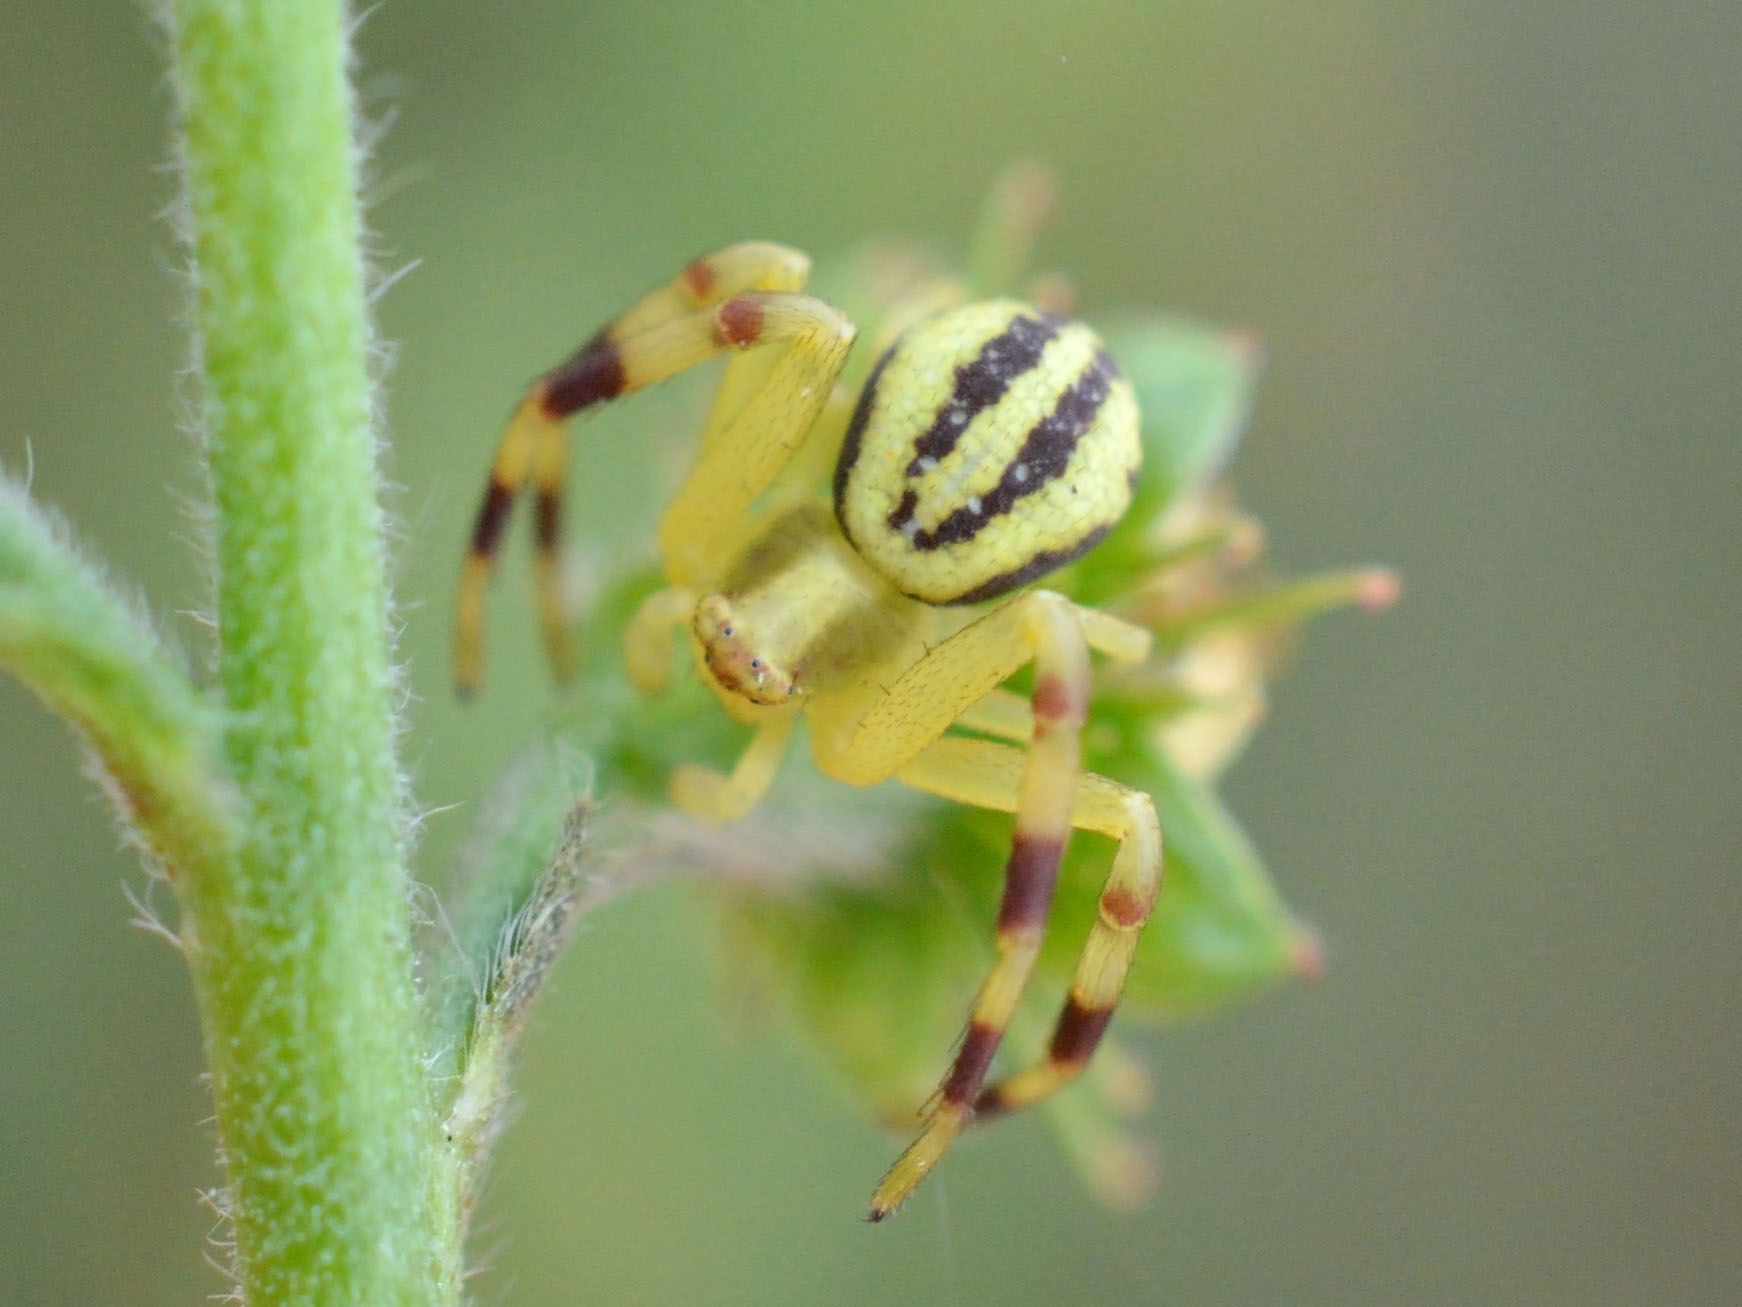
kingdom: Animalia
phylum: Arthropoda
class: Arachnida
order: Araneae
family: Thomisidae
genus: Misumena
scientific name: Misumena vatia
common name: Goldenrod crab spider
